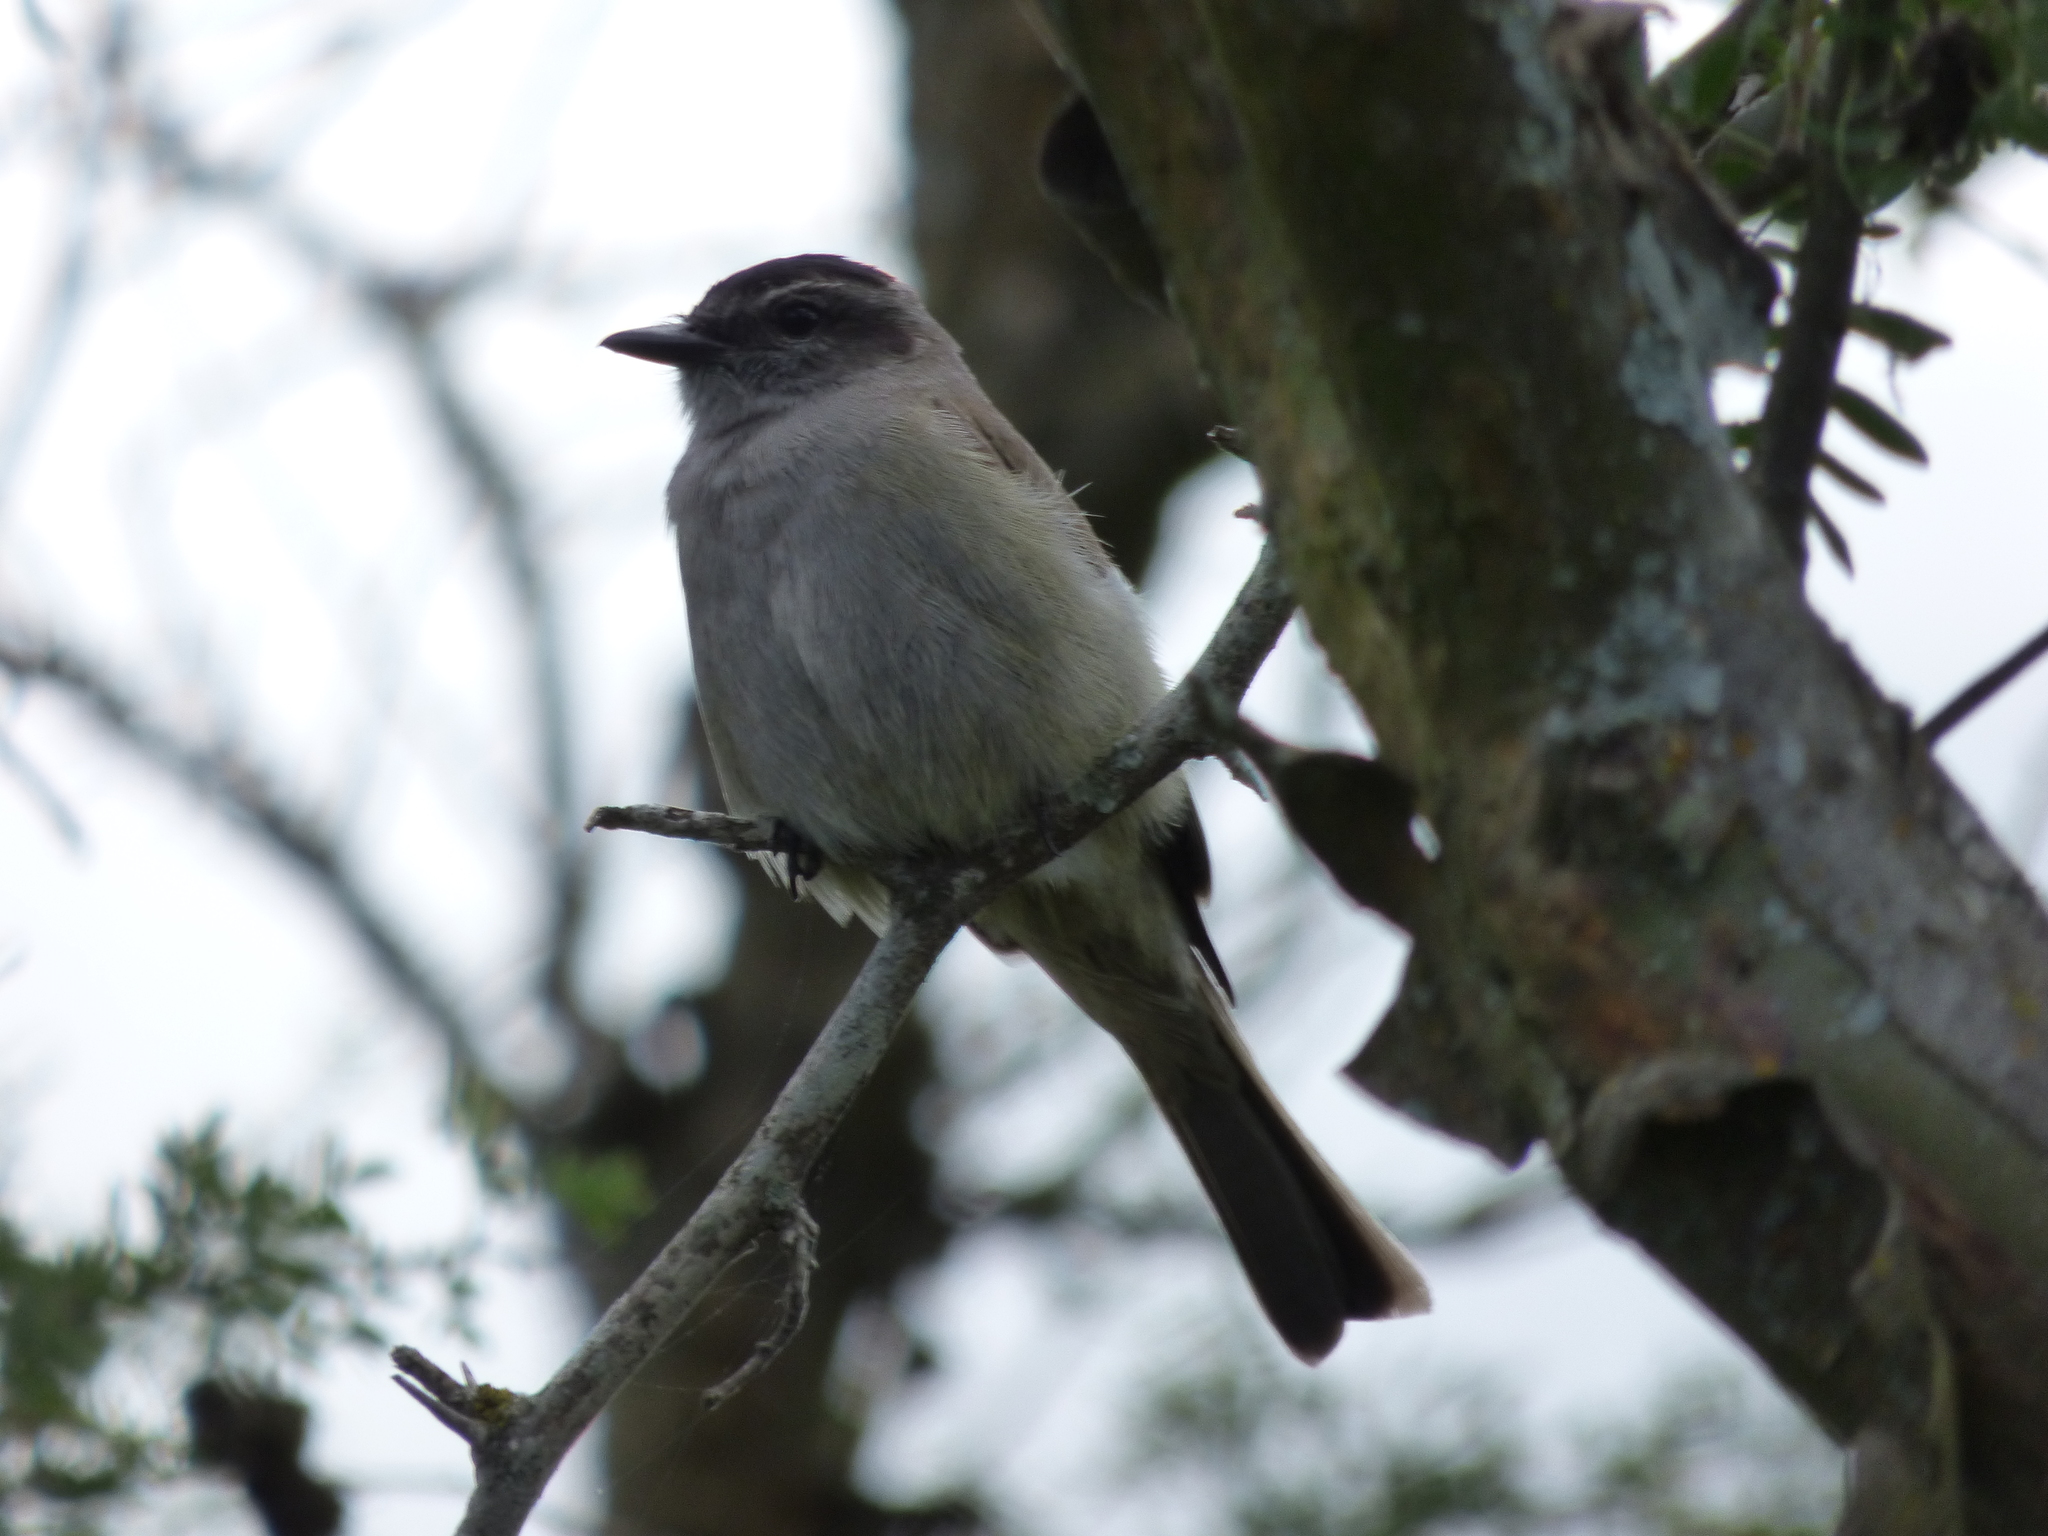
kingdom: Animalia
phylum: Chordata
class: Aves
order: Passeriformes
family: Tyrannidae
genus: Empidonomus
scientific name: Empidonomus aurantioatrocristatus
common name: Crowned slaty flycatcher
